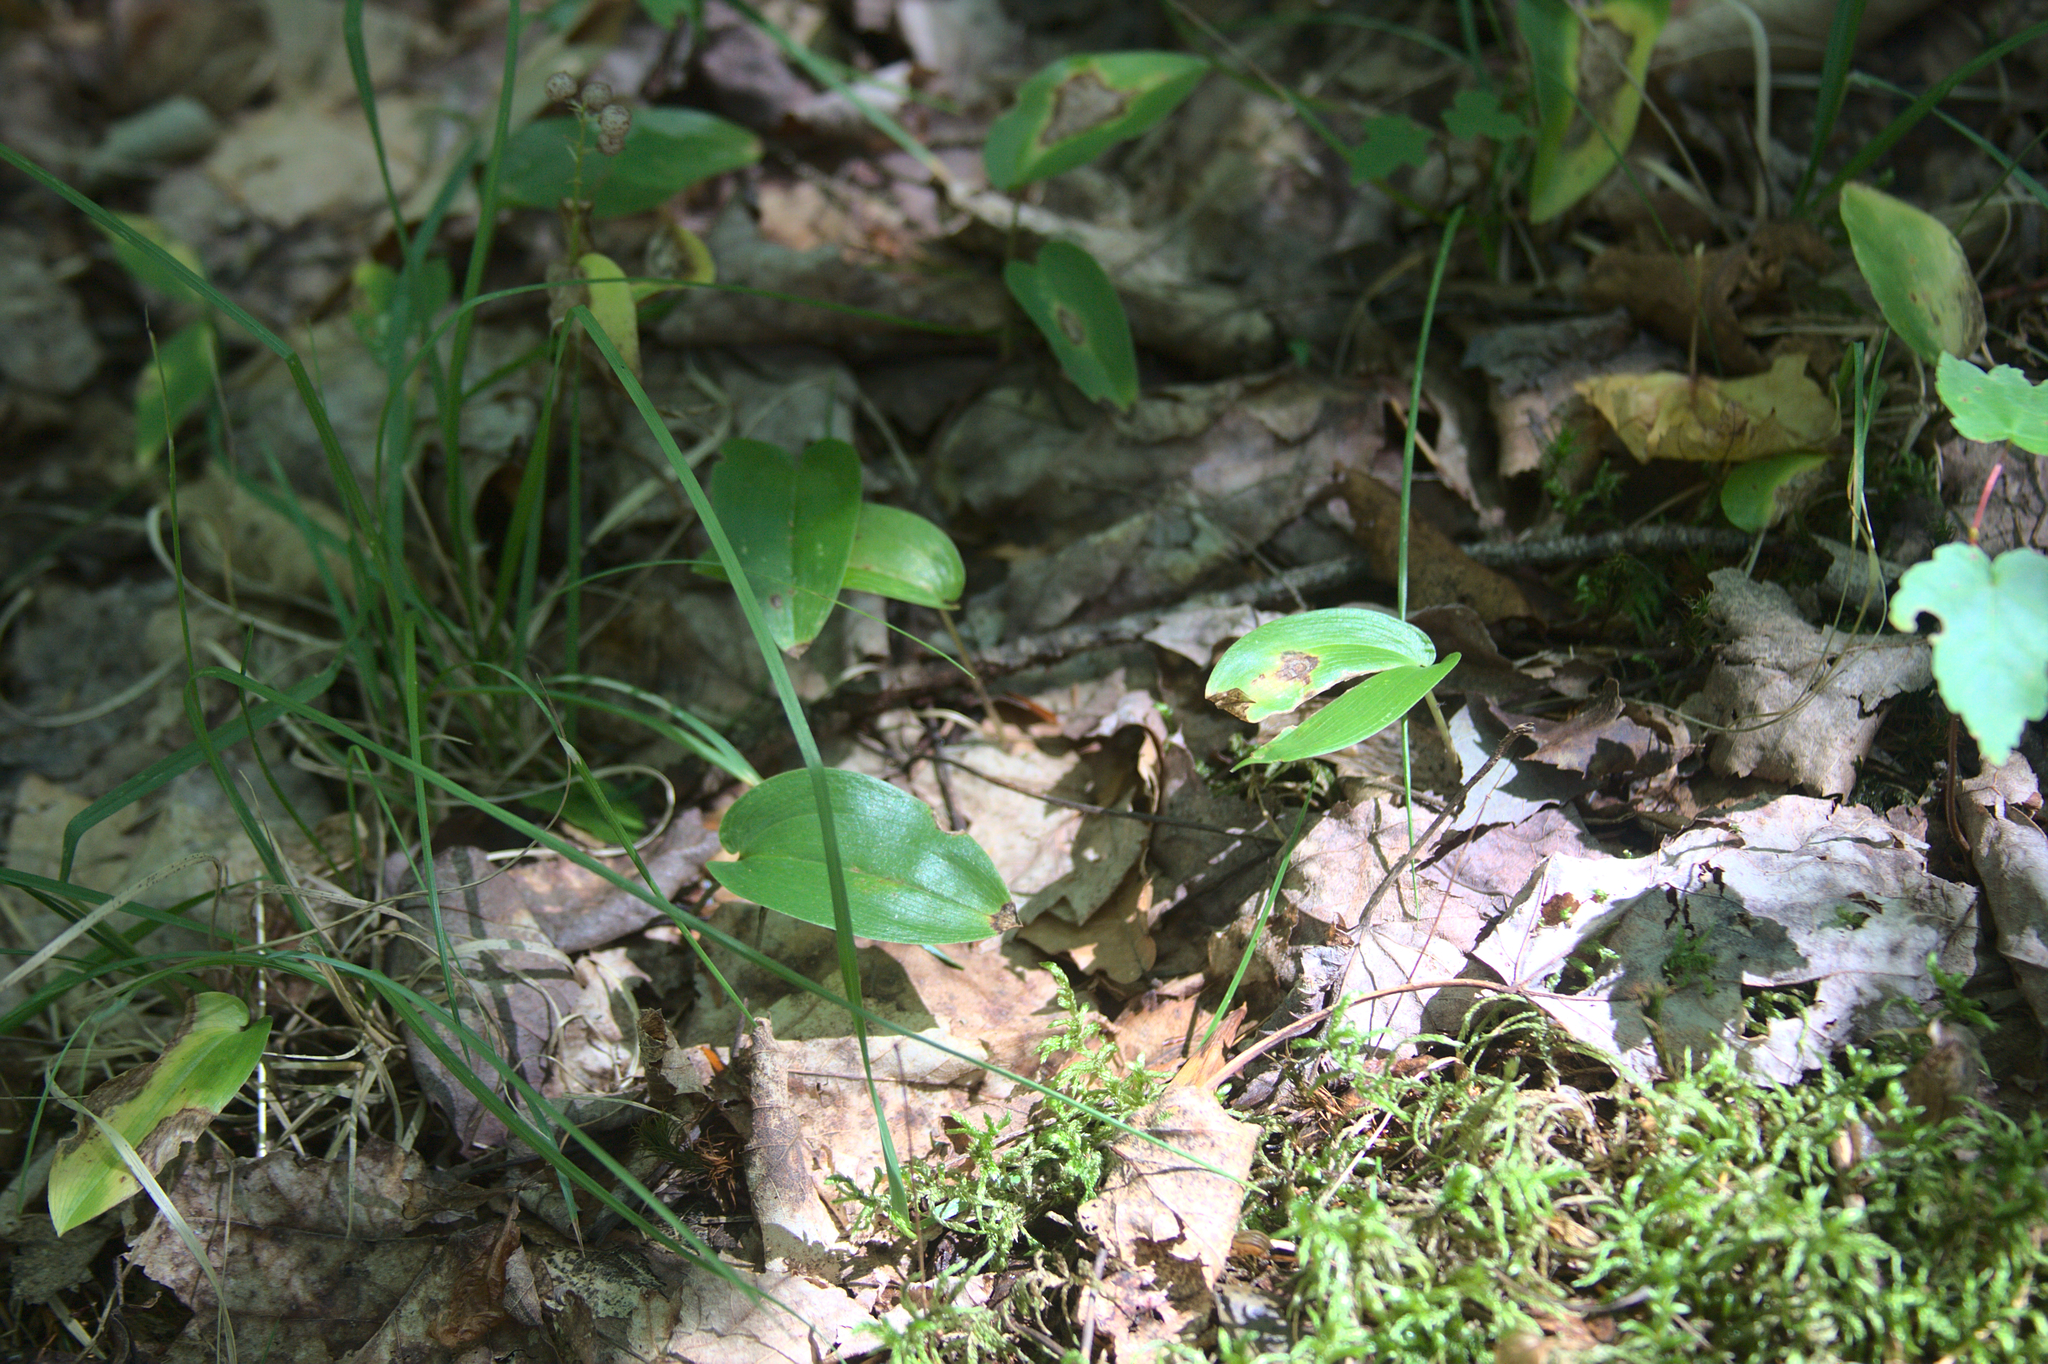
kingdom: Plantae
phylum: Tracheophyta
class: Liliopsida
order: Asparagales
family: Asparagaceae
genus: Maianthemum
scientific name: Maianthemum canadense
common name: False lily-of-the-valley
